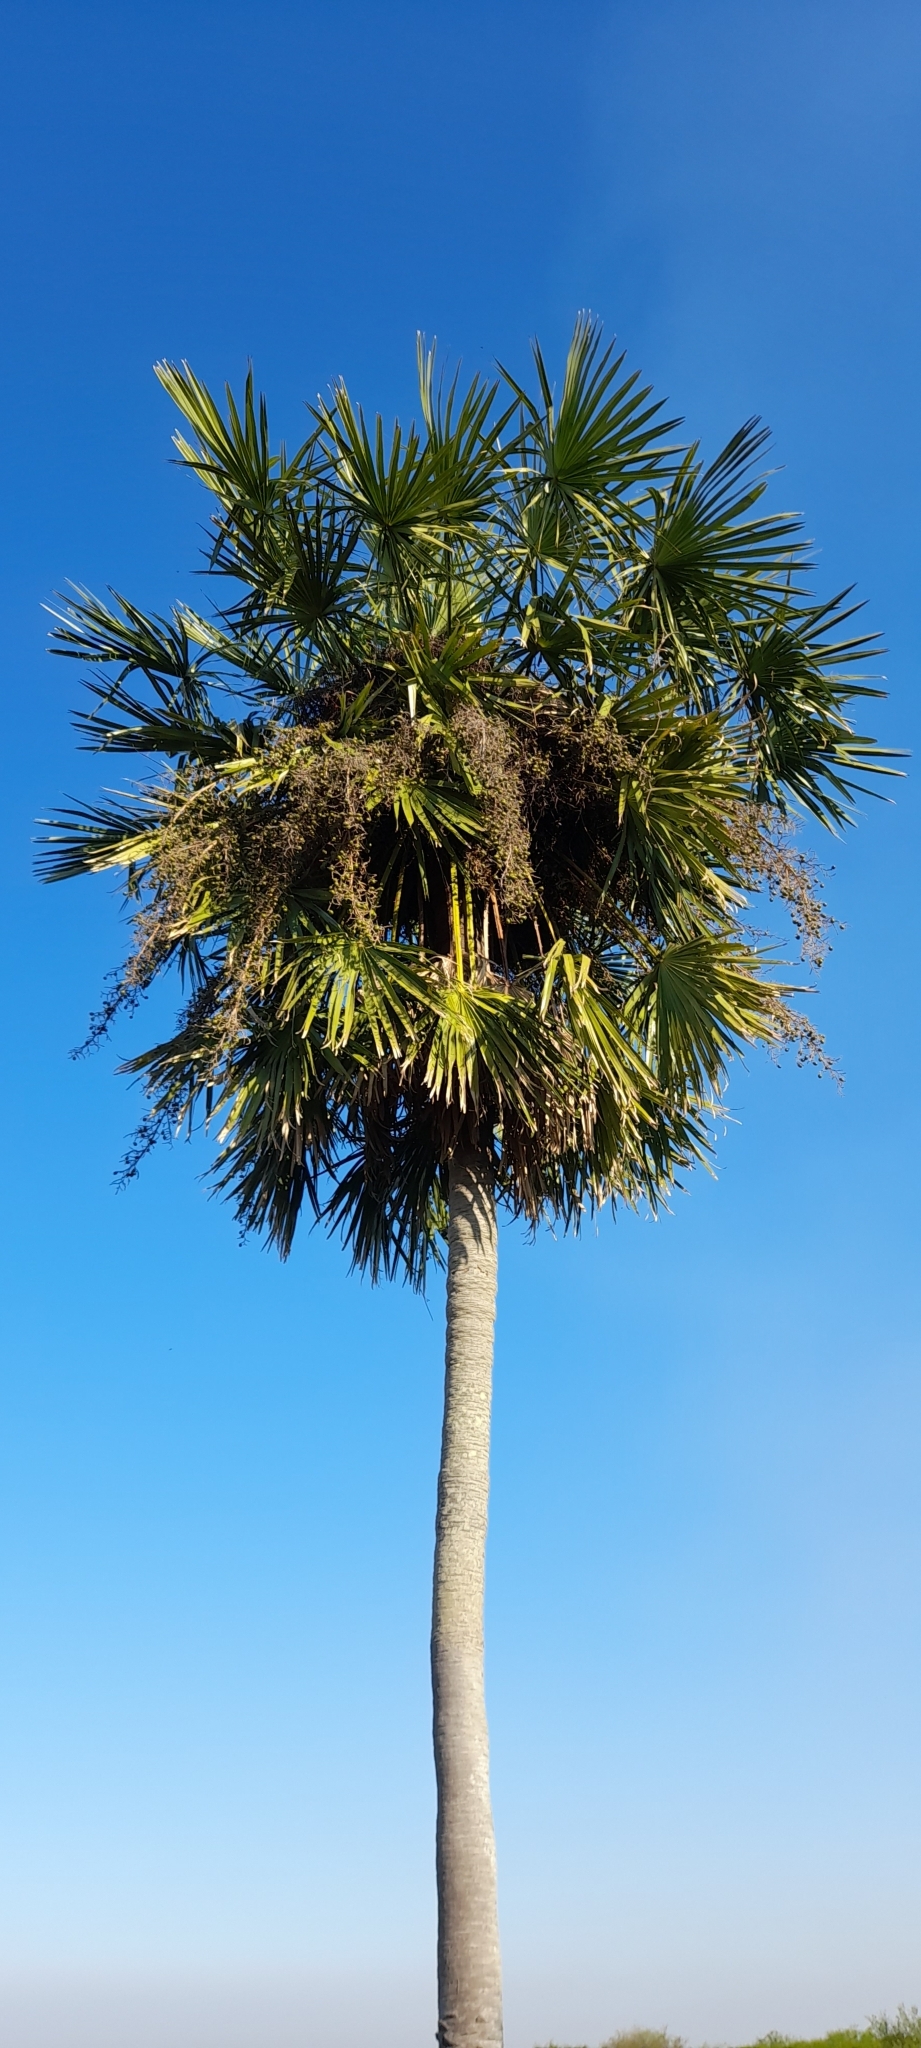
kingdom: Plantae
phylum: Tracheophyta
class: Liliopsida
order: Arecales
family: Arecaceae
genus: Copernicia
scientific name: Copernicia alba
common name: Caranday palm
